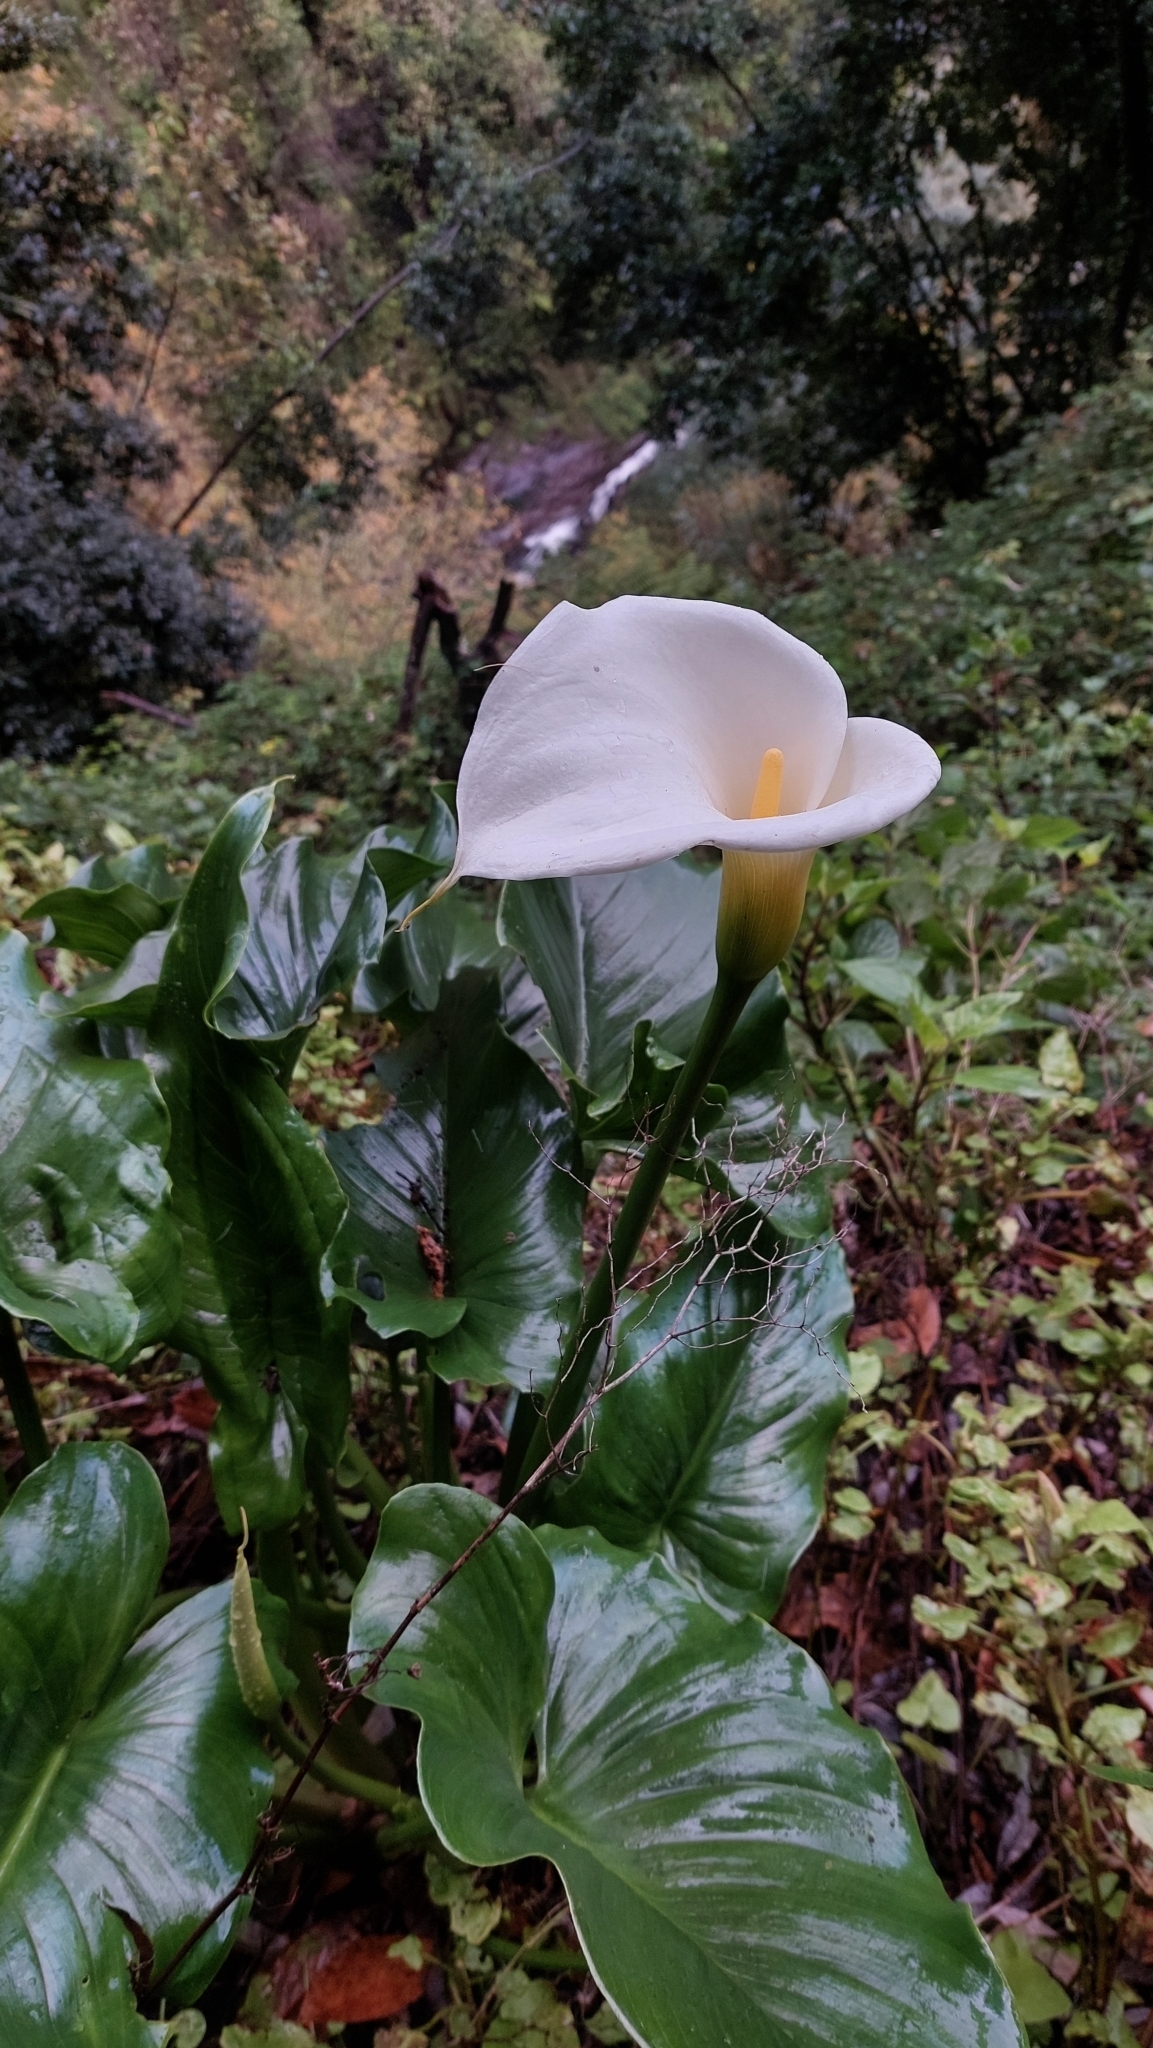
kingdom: Plantae
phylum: Tracheophyta
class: Liliopsida
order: Alismatales
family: Araceae
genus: Zantedeschia
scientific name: Zantedeschia aethiopica
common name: Altar-lily
